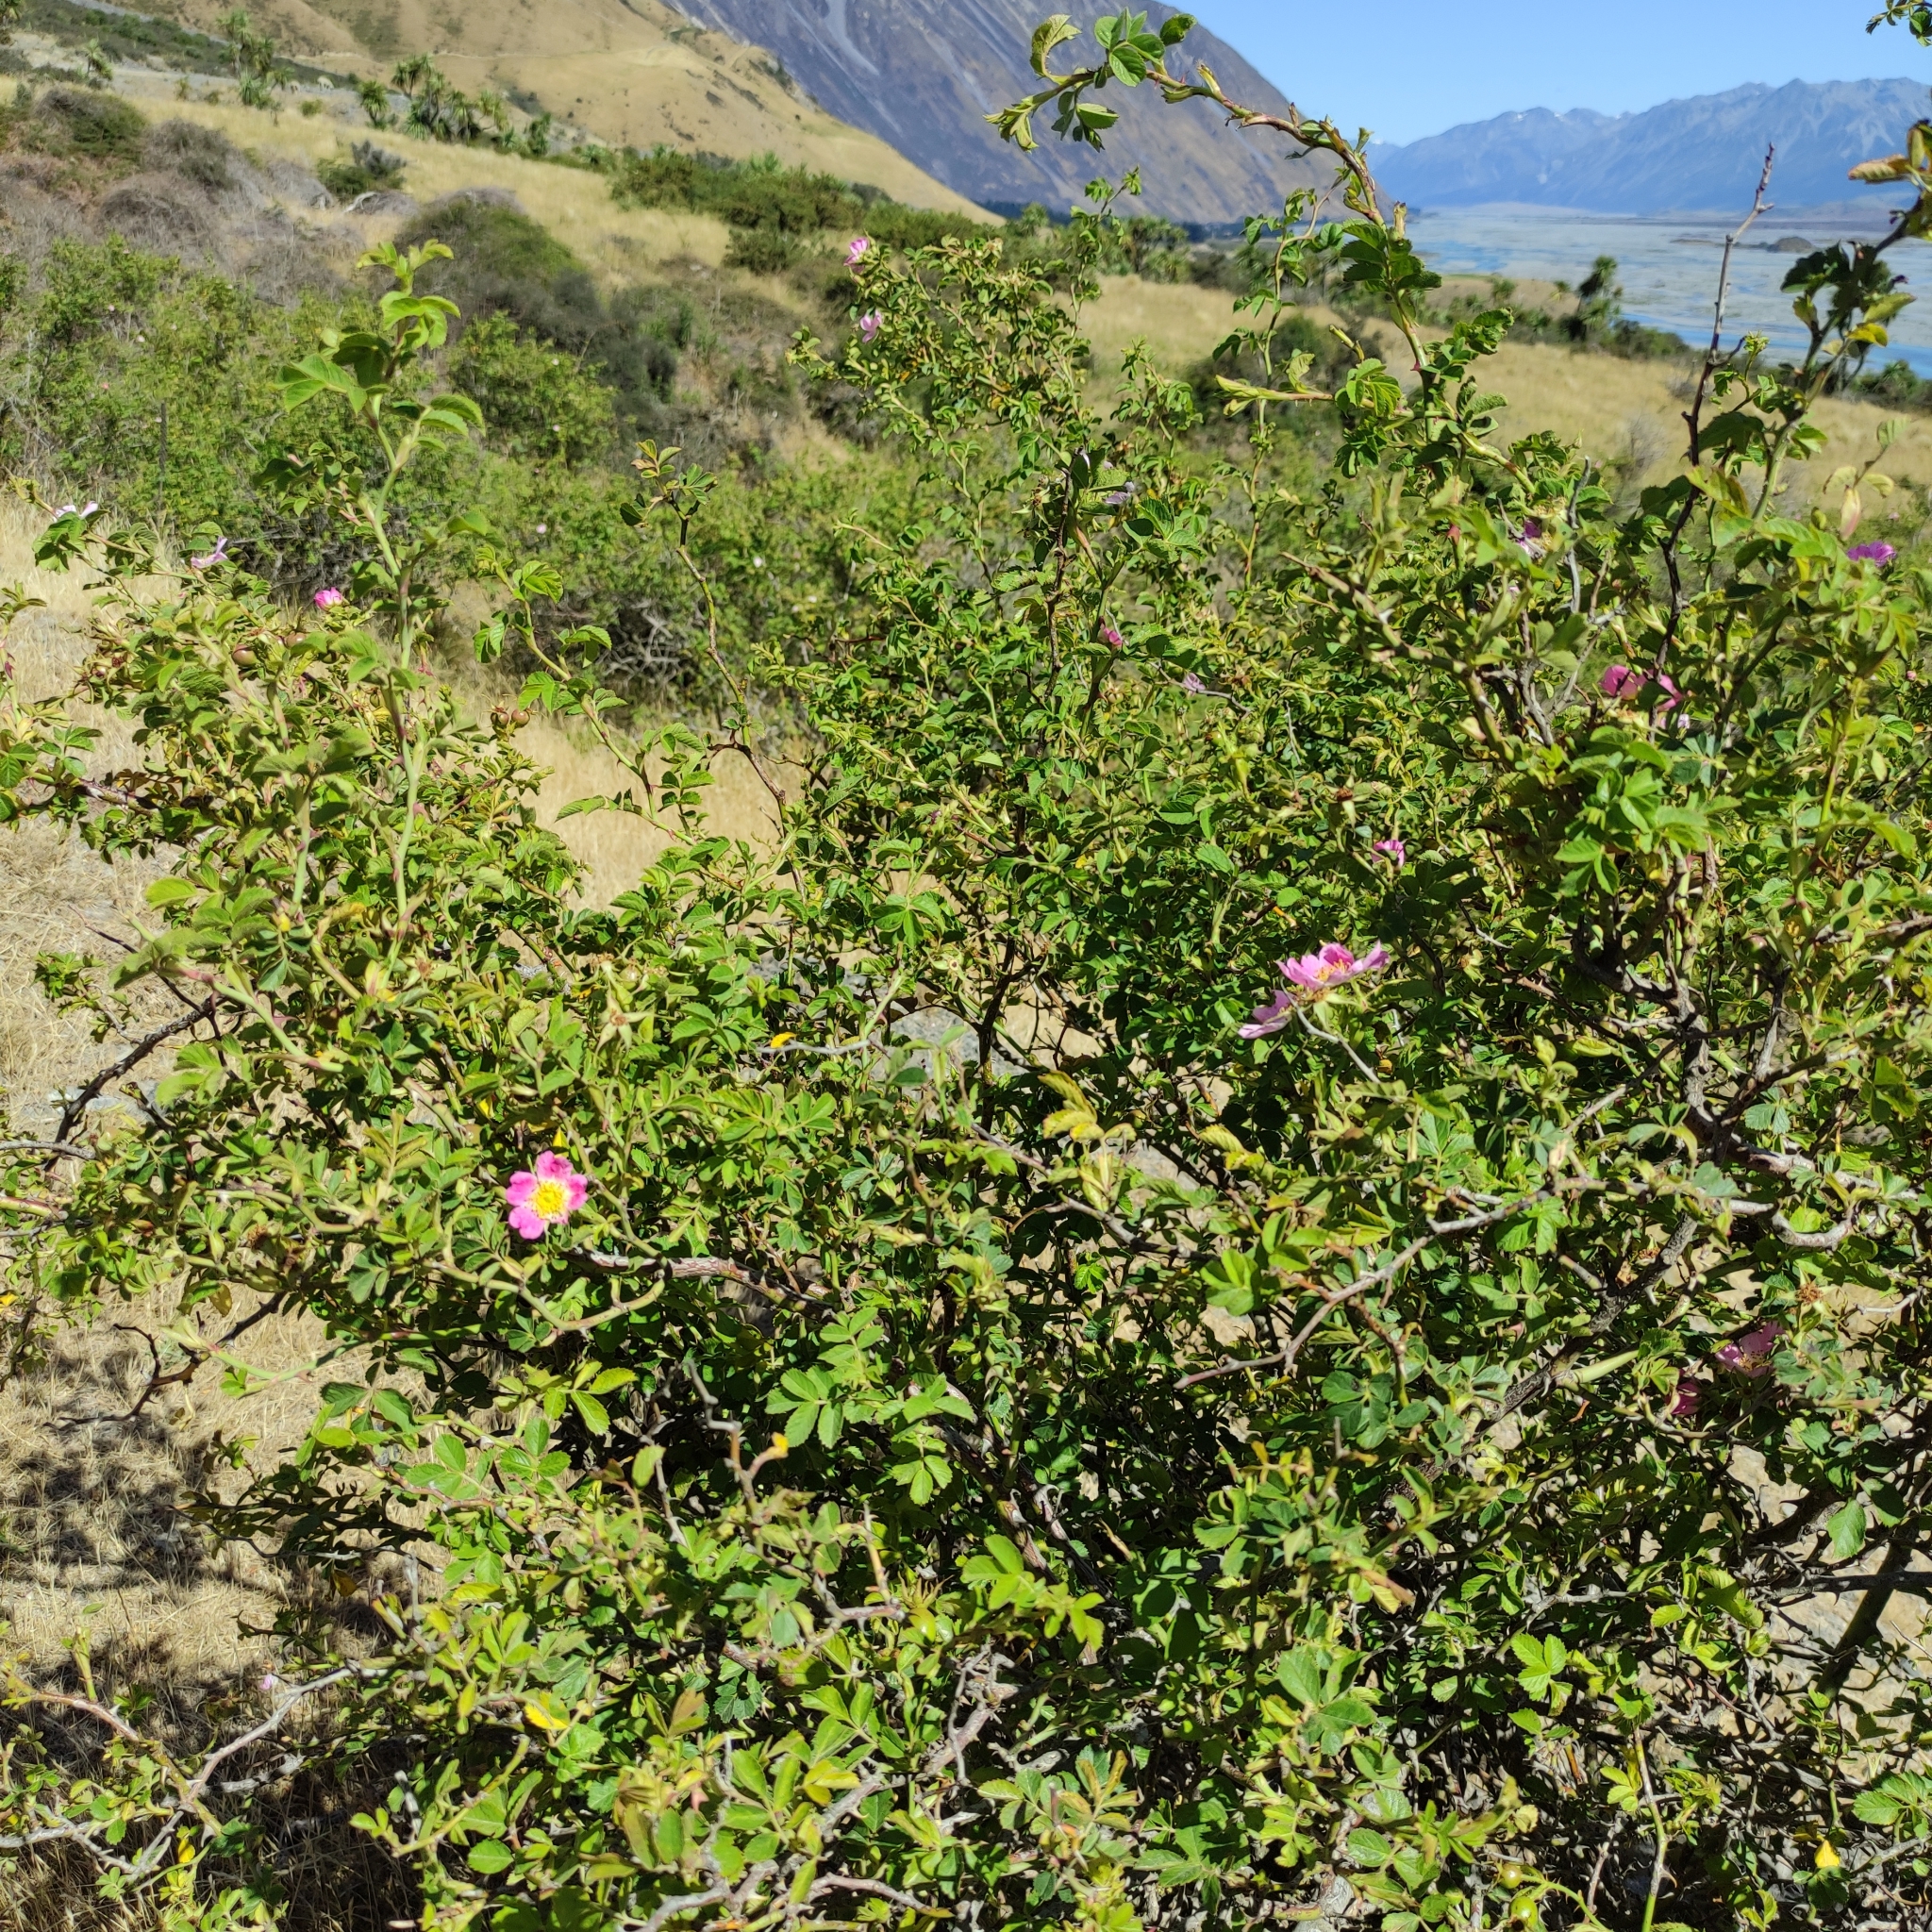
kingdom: Plantae
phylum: Tracheophyta
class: Magnoliopsida
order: Rosales
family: Rosaceae
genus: Rosa
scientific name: Rosa rubiginosa
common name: Sweet-briar
